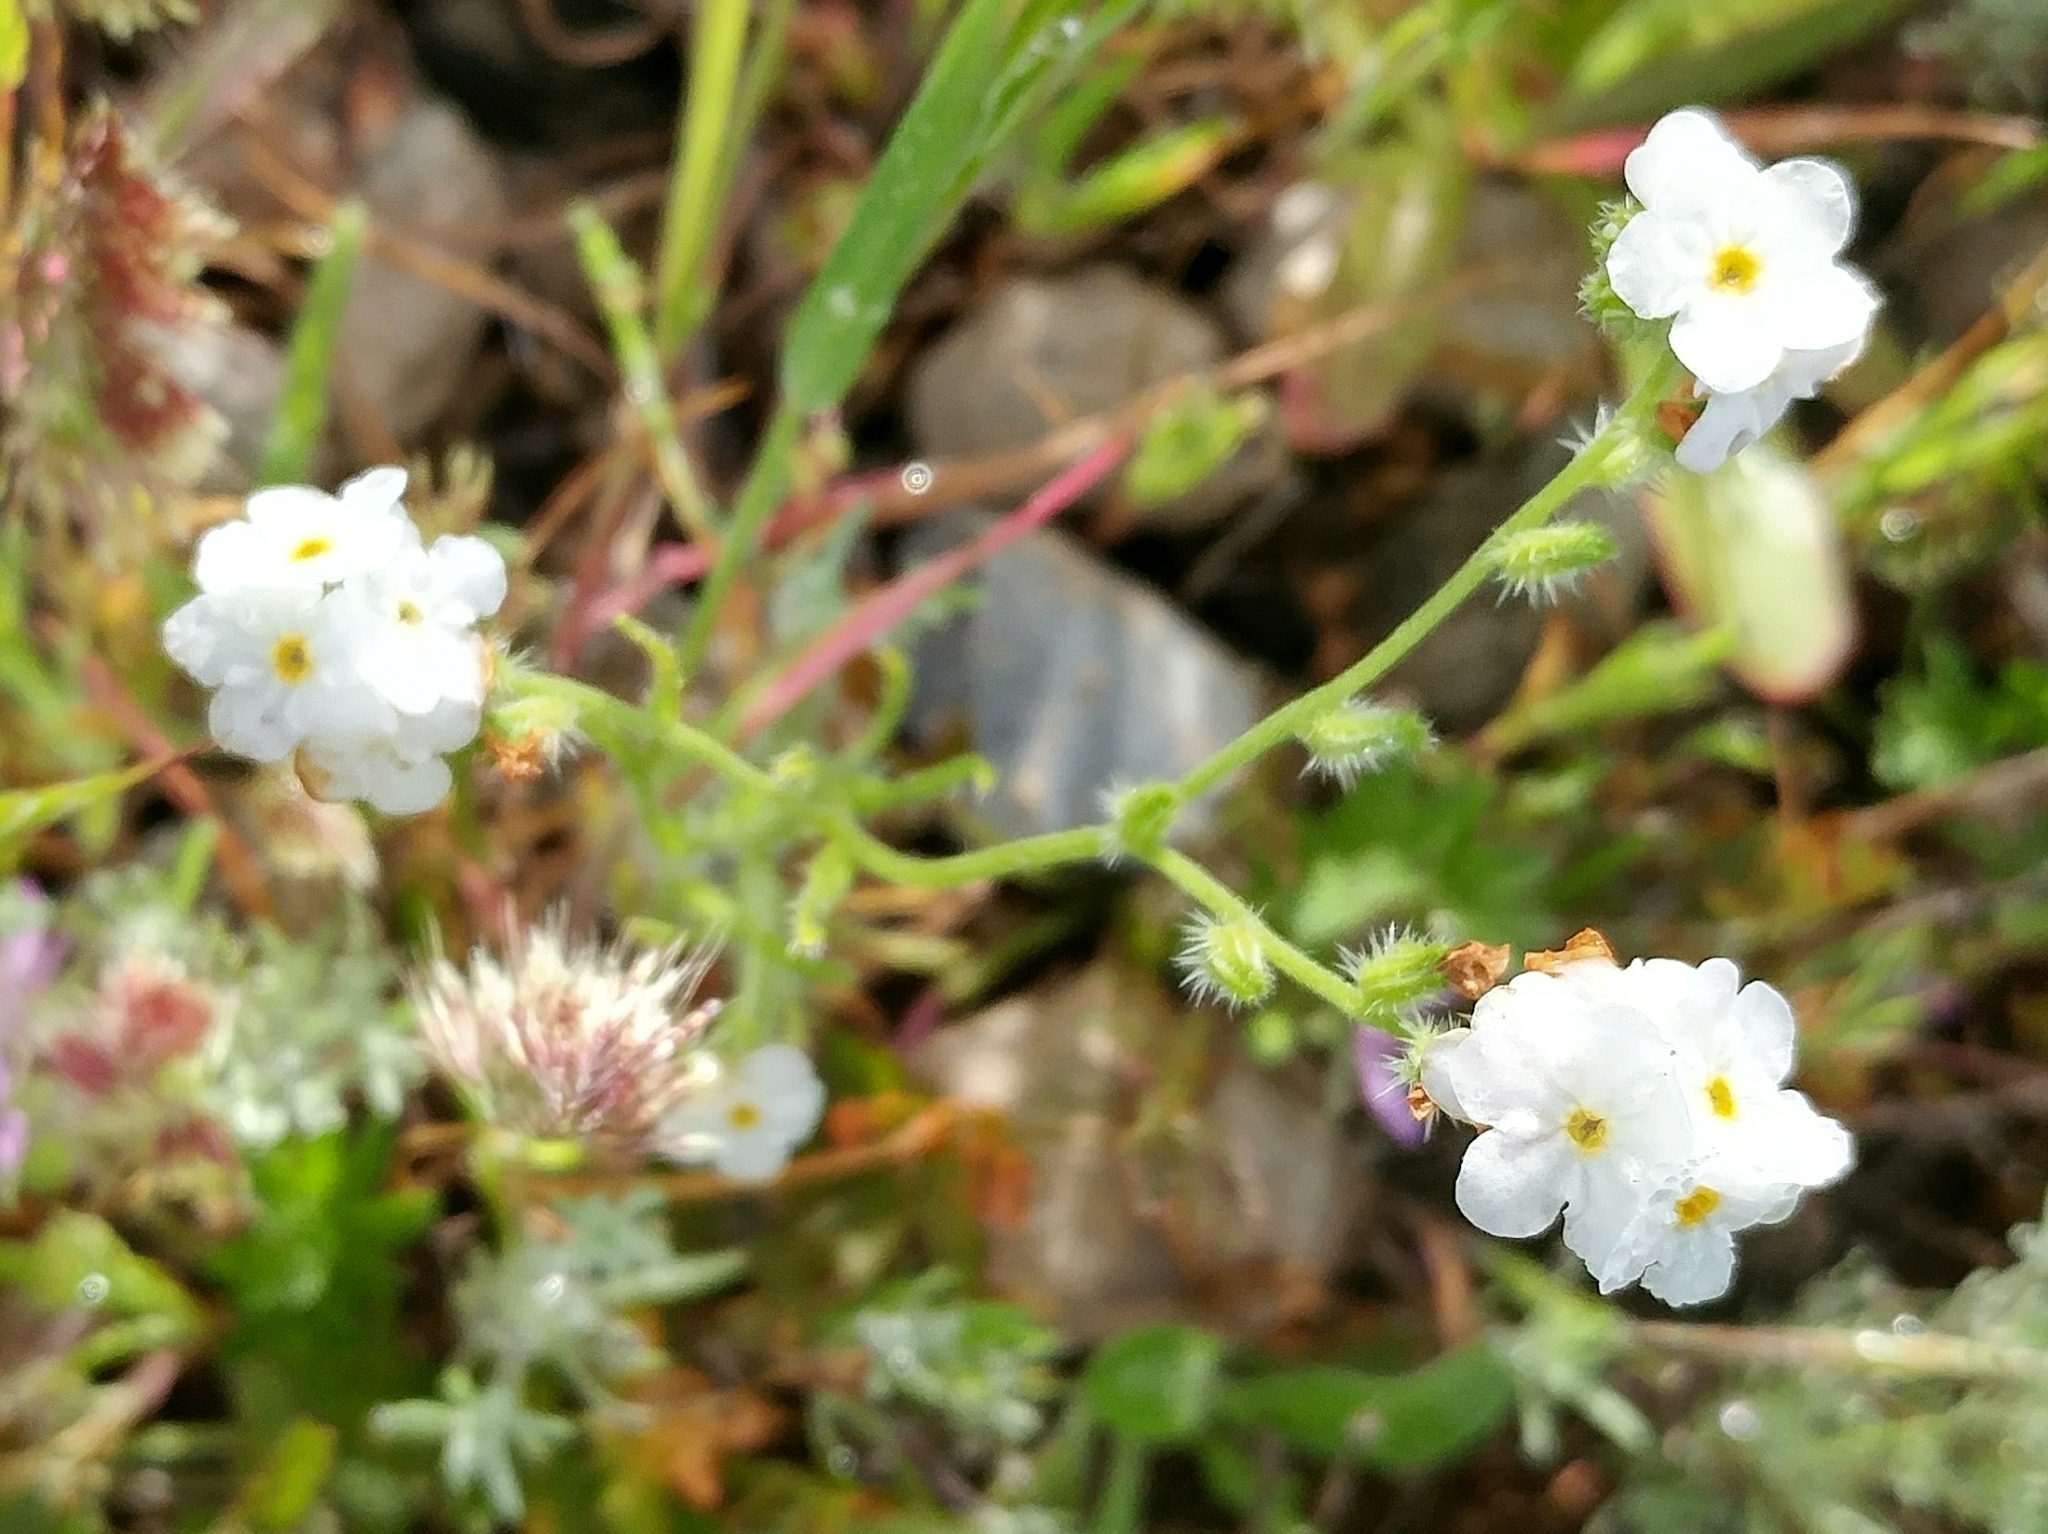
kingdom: Plantae
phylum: Tracheophyta
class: Magnoliopsida
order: Boraginales
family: Boraginaceae
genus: Cryptantha
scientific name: Cryptantha kinkiensis
